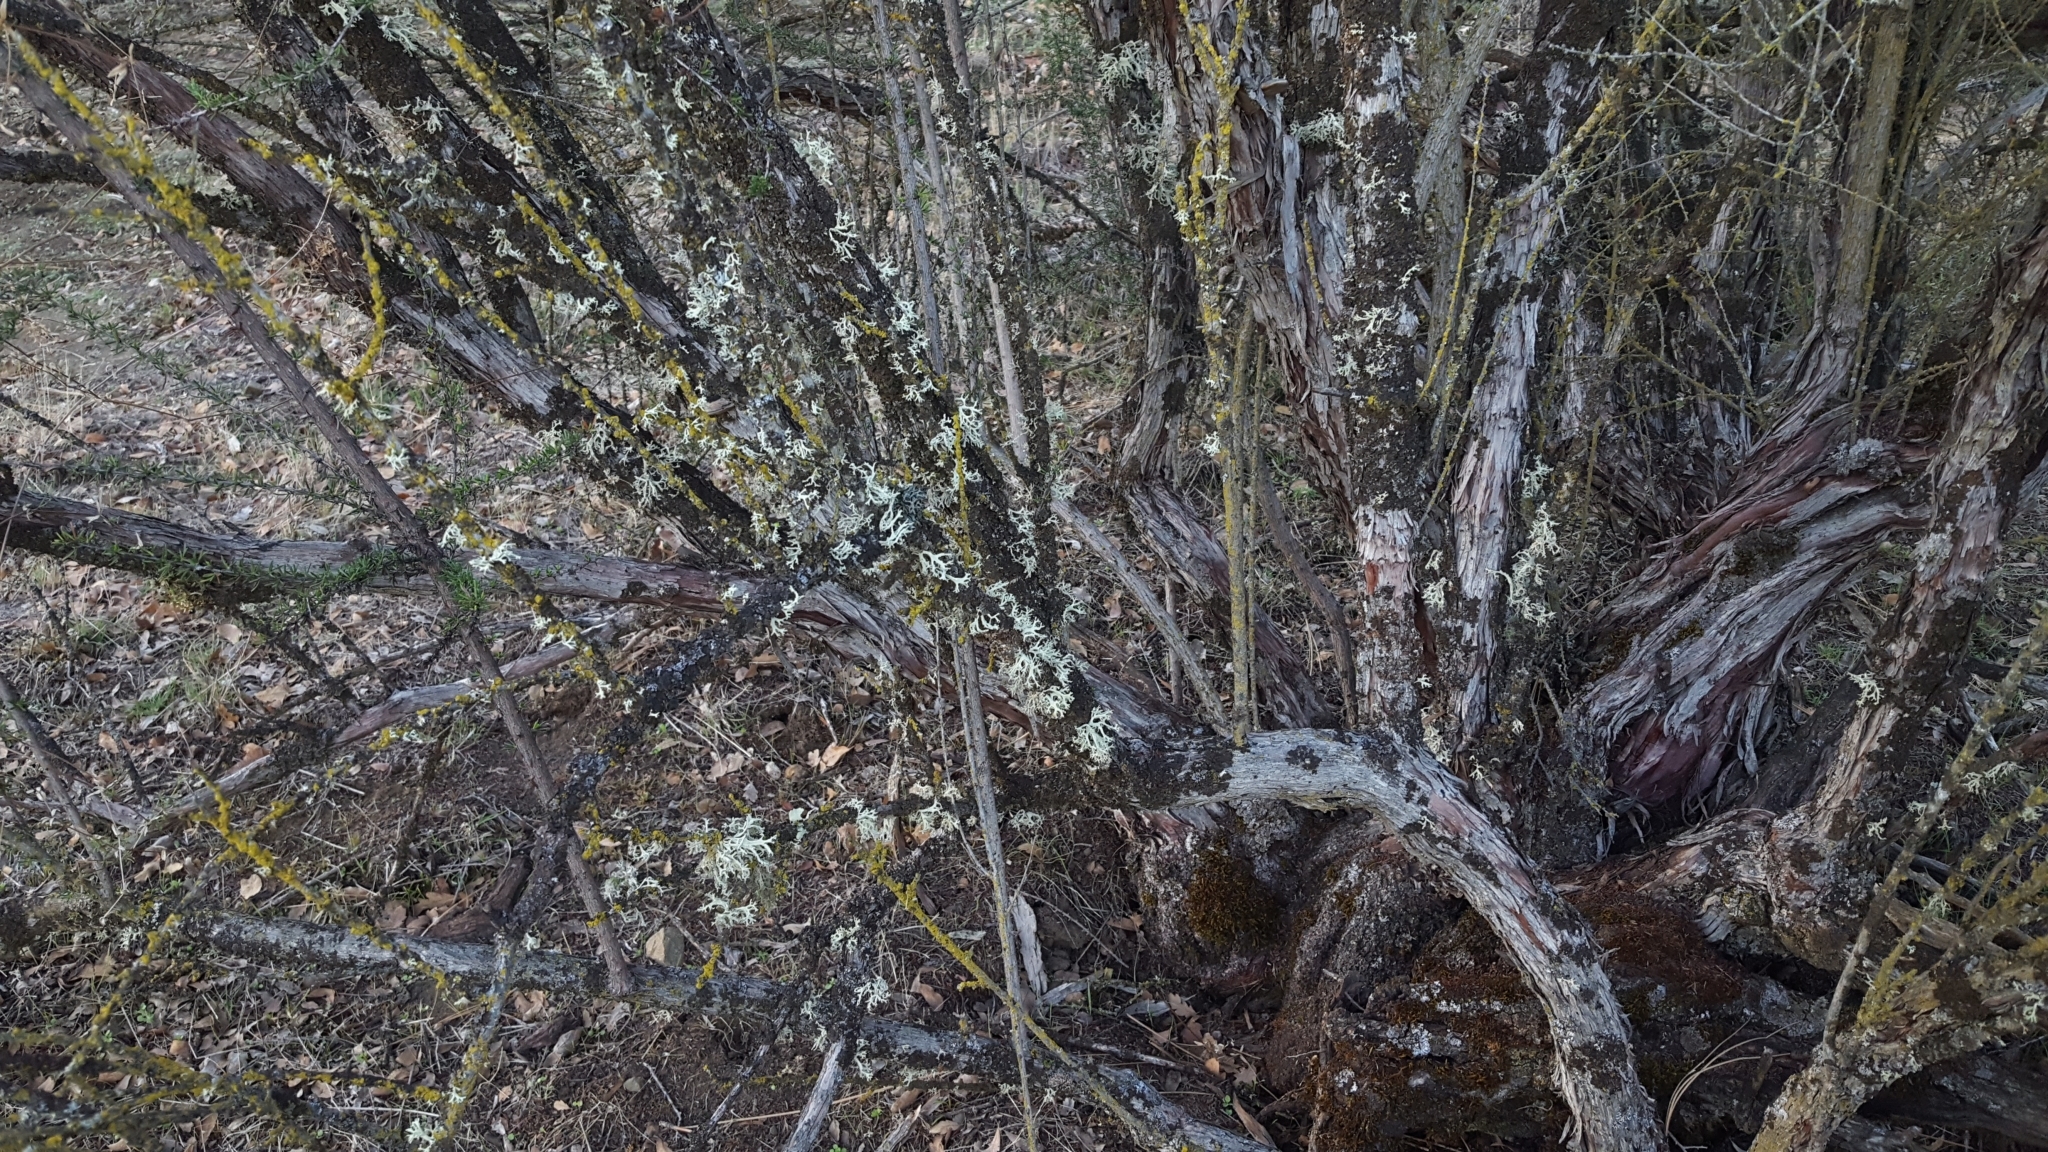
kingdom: Plantae
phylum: Tracheophyta
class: Magnoliopsida
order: Rosales
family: Rosaceae
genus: Adenostoma
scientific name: Adenostoma fasciculatum
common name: Chamise
